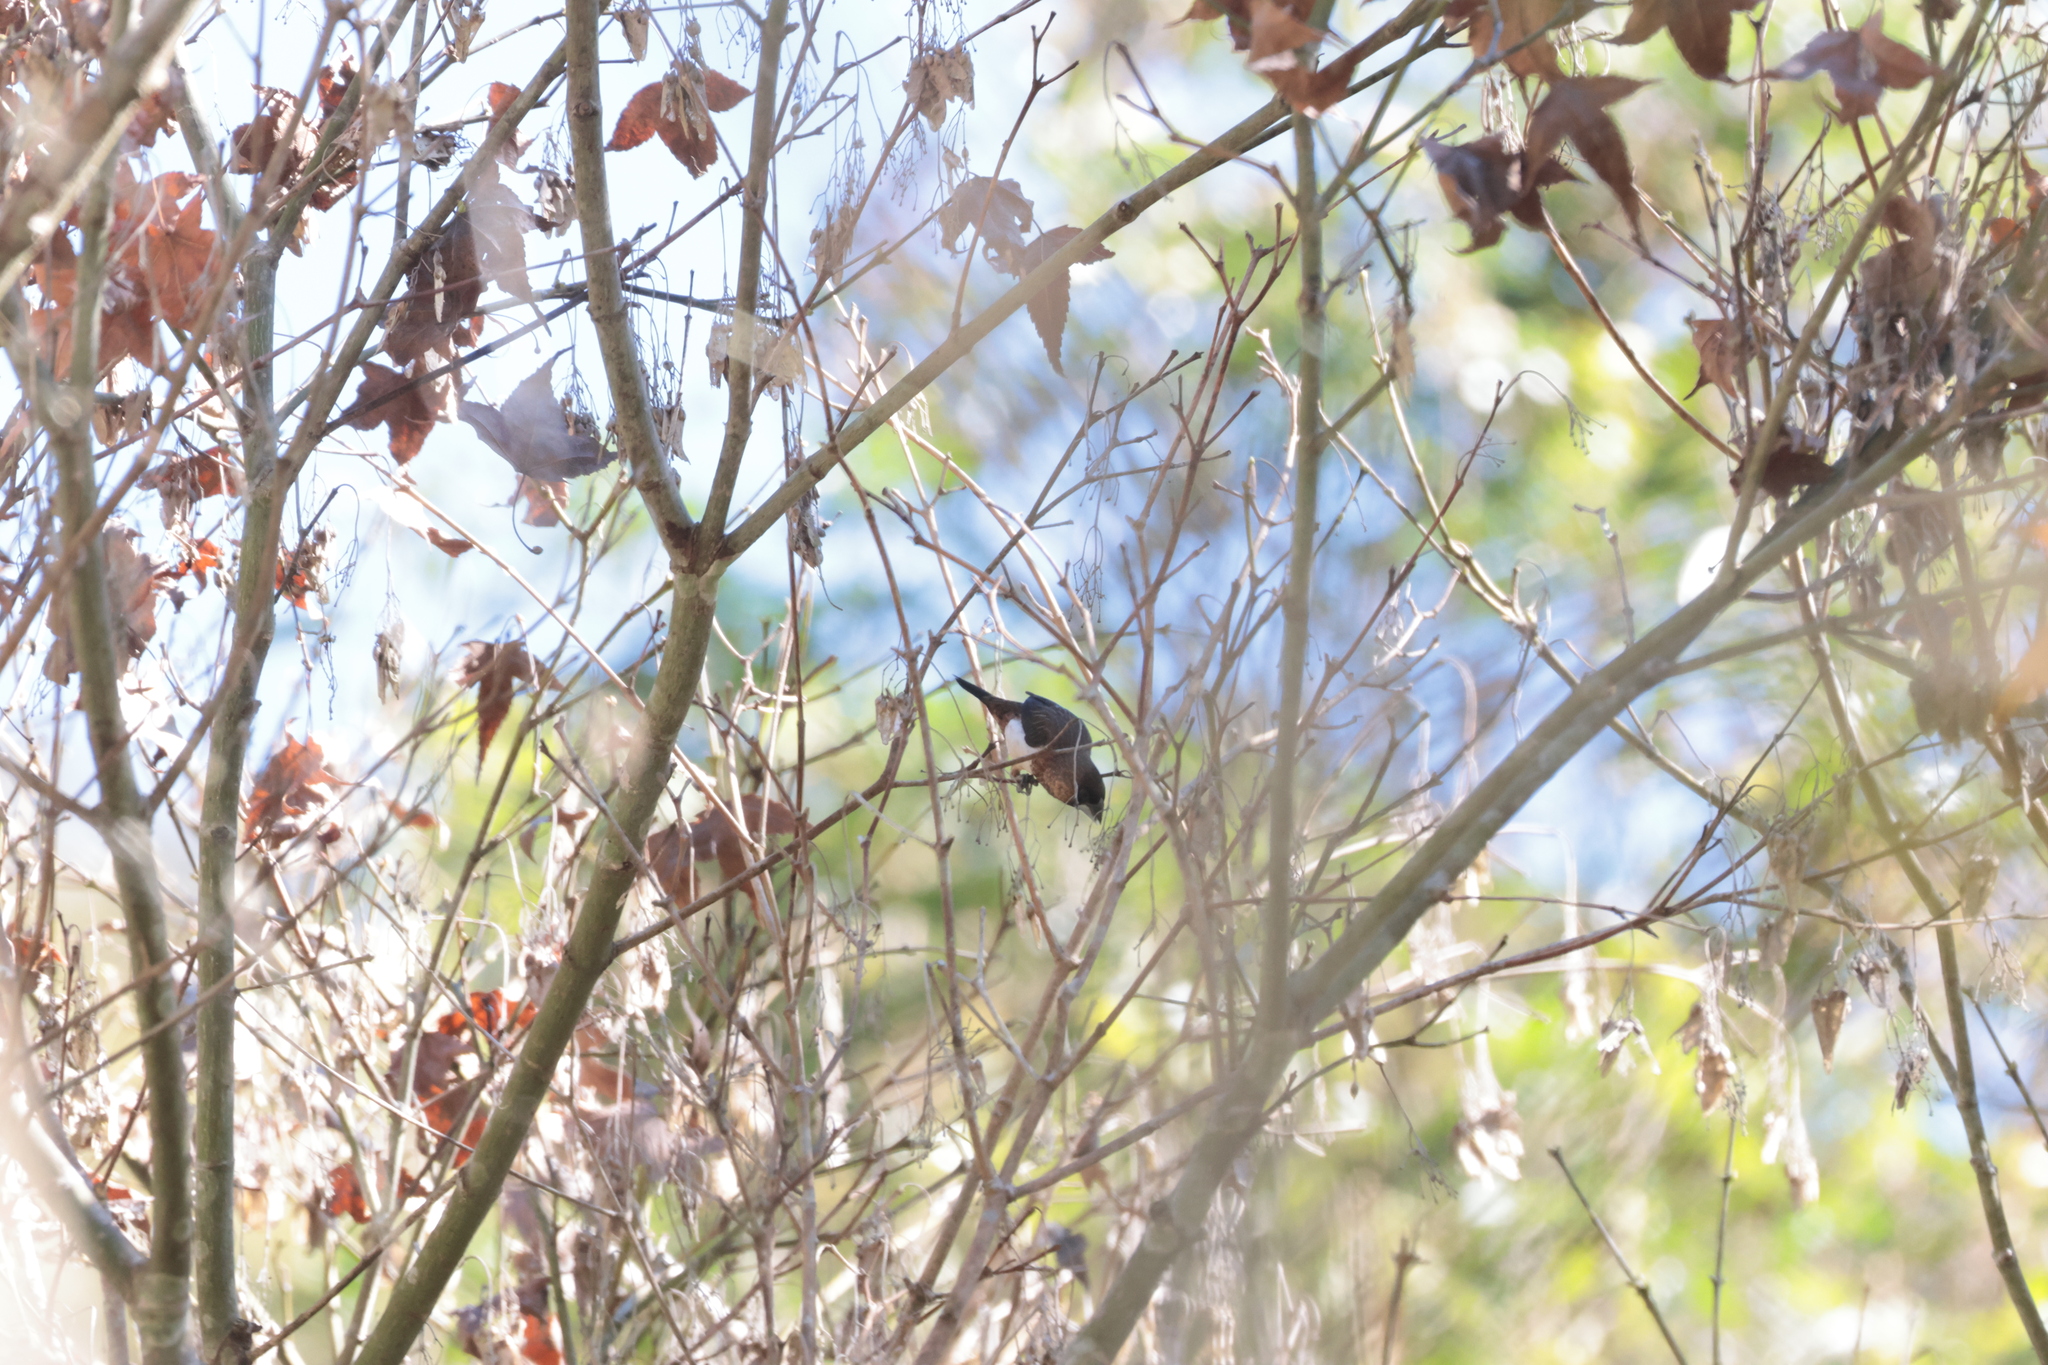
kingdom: Animalia
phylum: Chordata
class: Aves
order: Passeriformes
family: Estrildidae
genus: Lonchura
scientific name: Lonchura striata
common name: White-rumped munia
